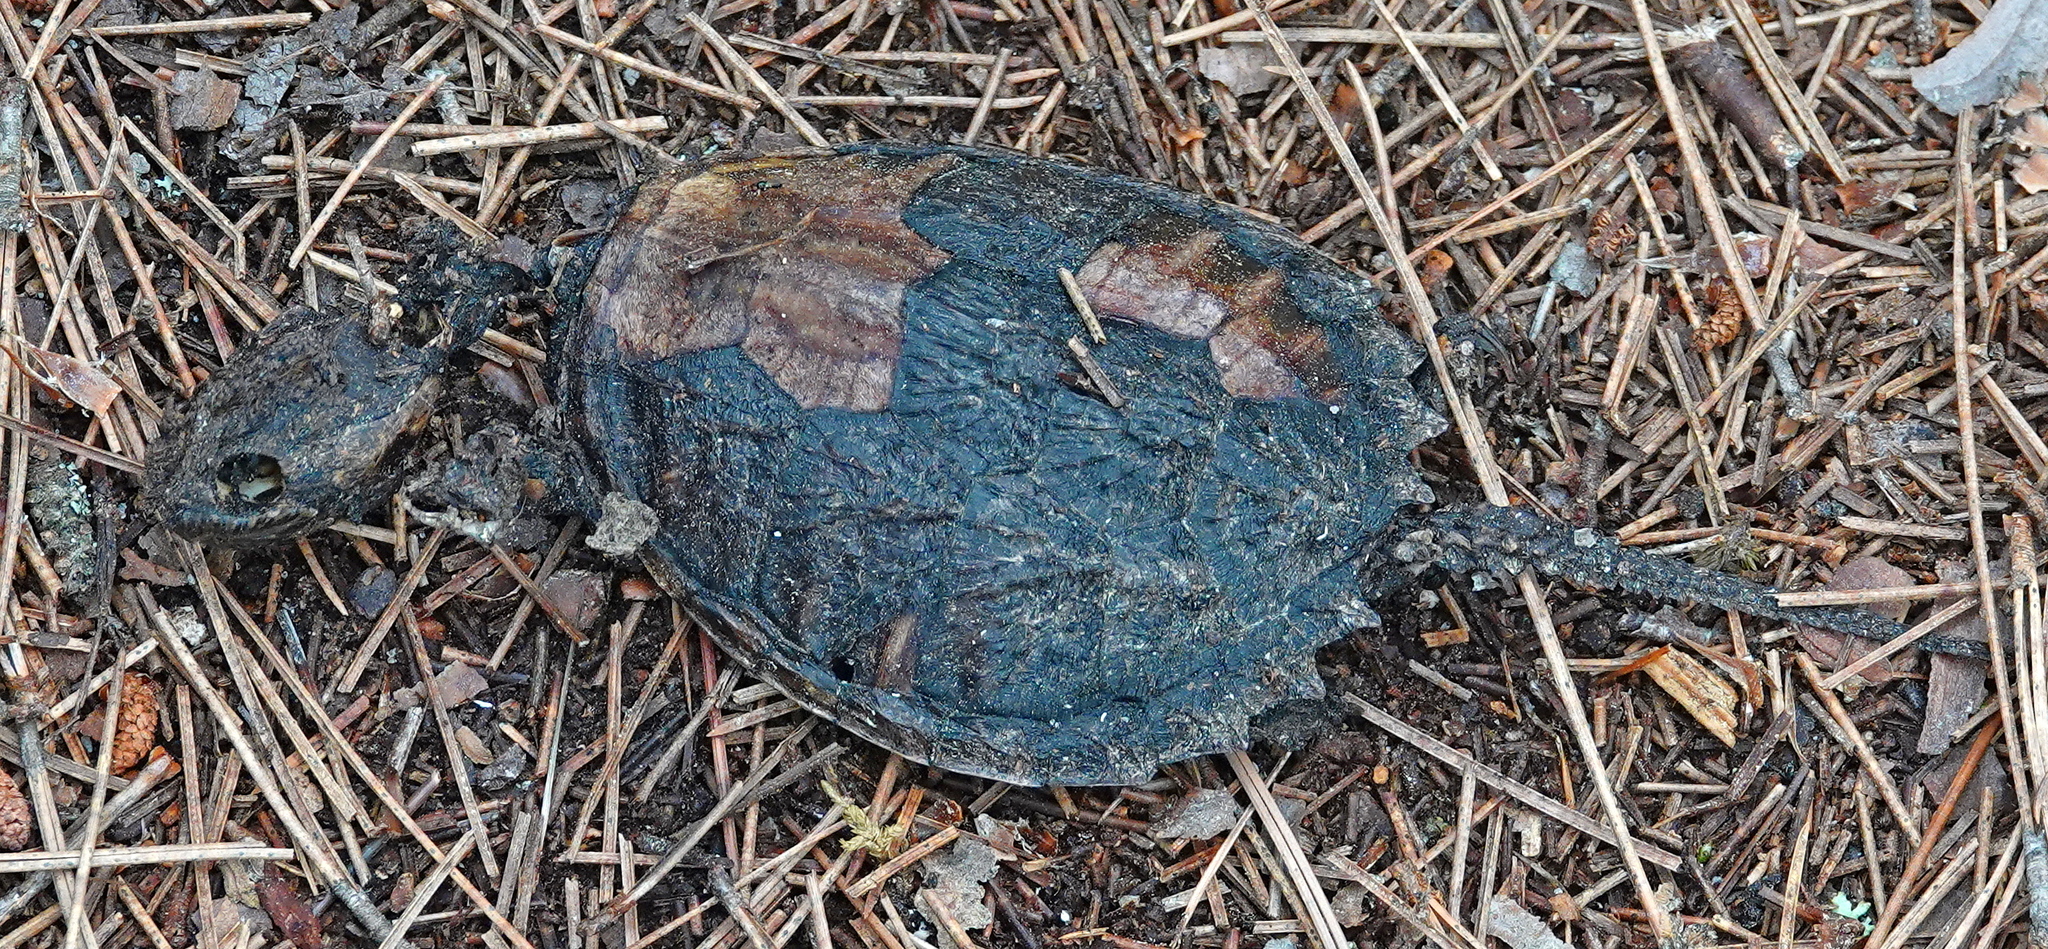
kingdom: Animalia
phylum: Chordata
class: Testudines
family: Chelydridae
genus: Chelydra
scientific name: Chelydra serpentina
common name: Common snapping turtle
